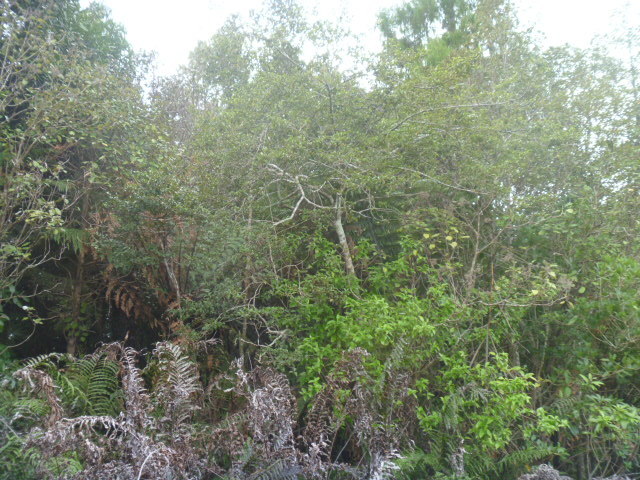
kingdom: Plantae
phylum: Tracheophyta
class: Magnoliopsida
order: Asterales
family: Rousseaceae
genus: Carpodetus
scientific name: Carpodetus serratus
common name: White mapau
